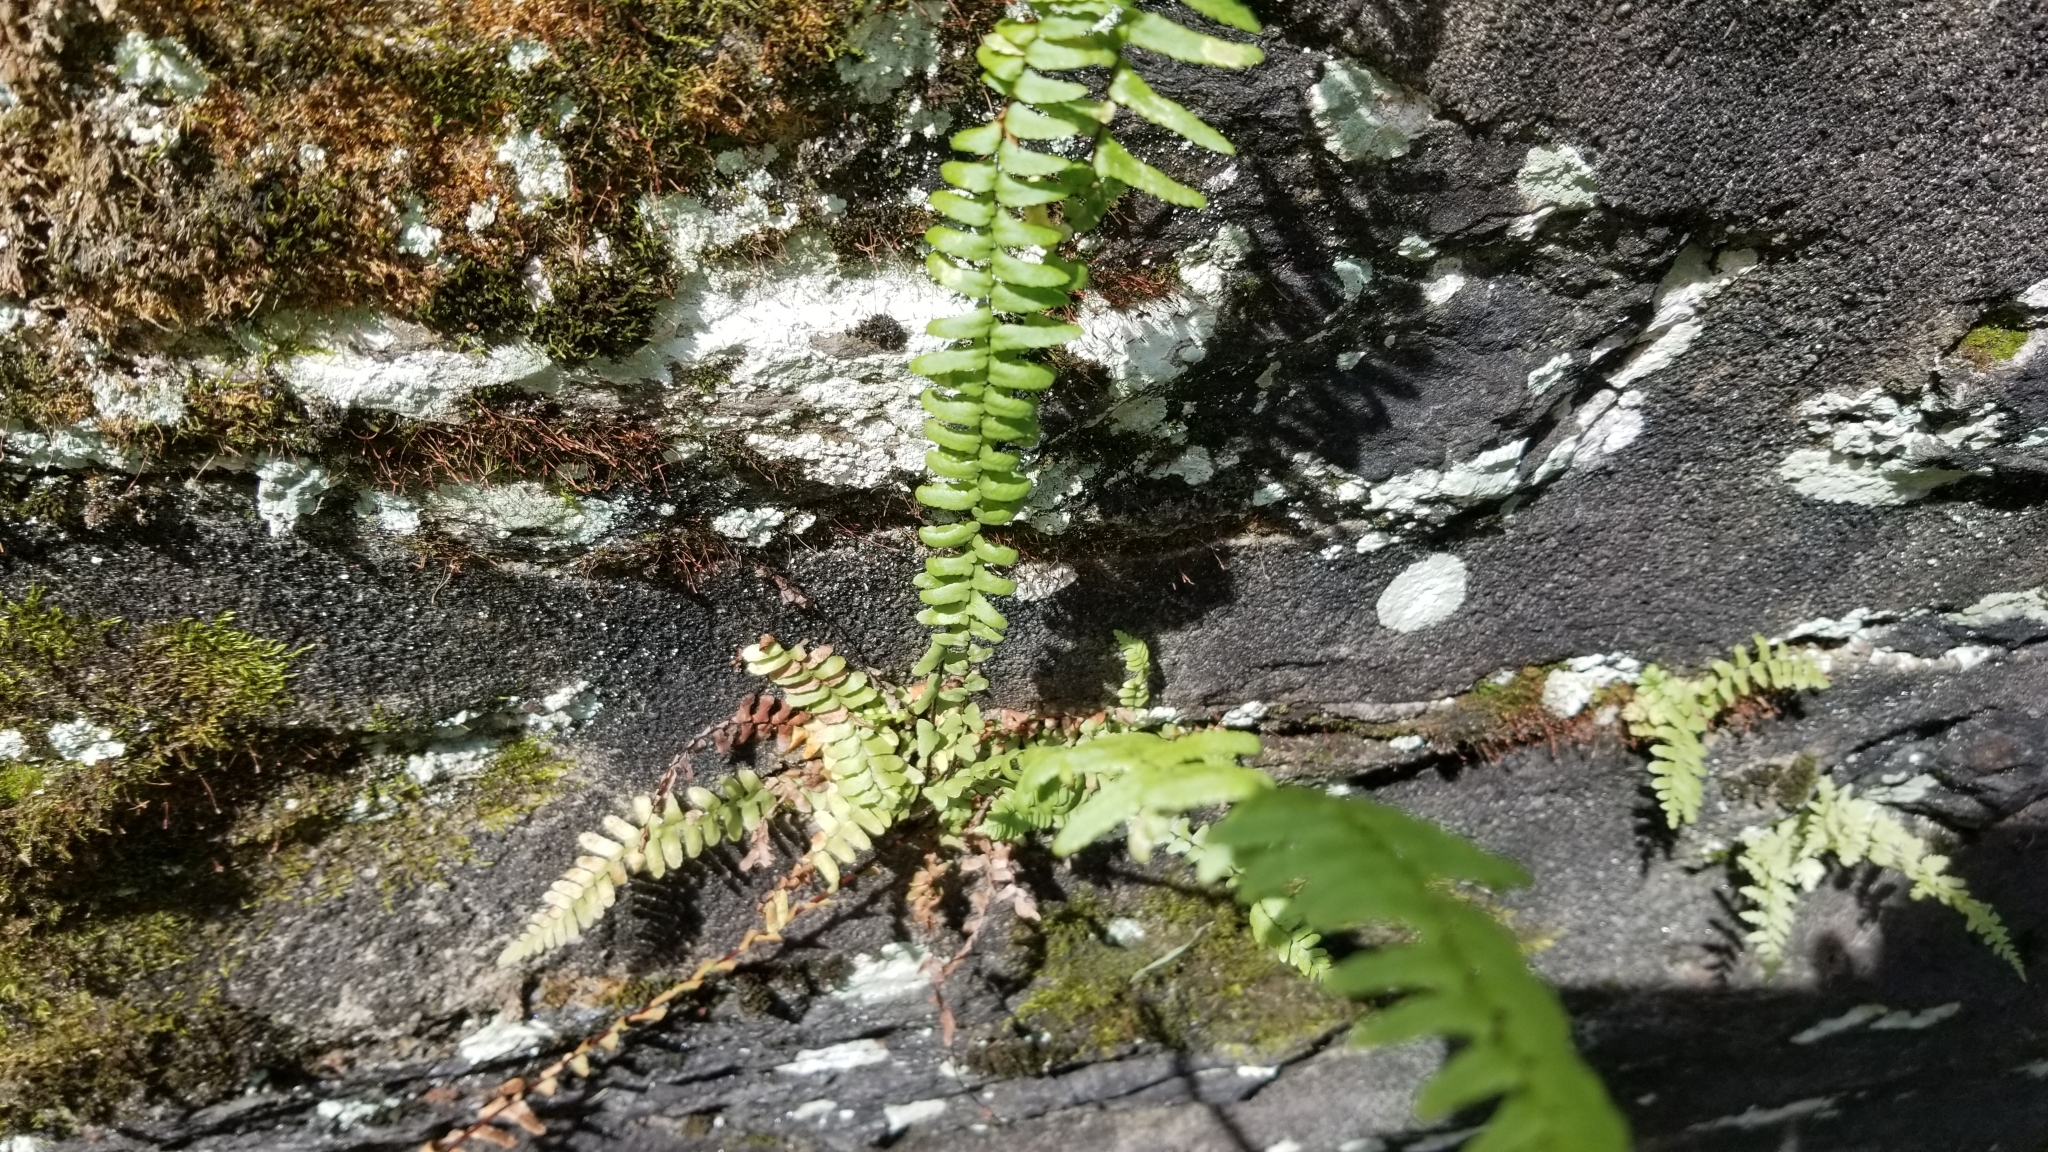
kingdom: Plantae
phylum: Tracheophyta
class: Polypodiopsida
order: Polypodiales
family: Aspleniaceae
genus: Asplenium
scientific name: Asplenium platyneuron
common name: Ebony spleenwort
